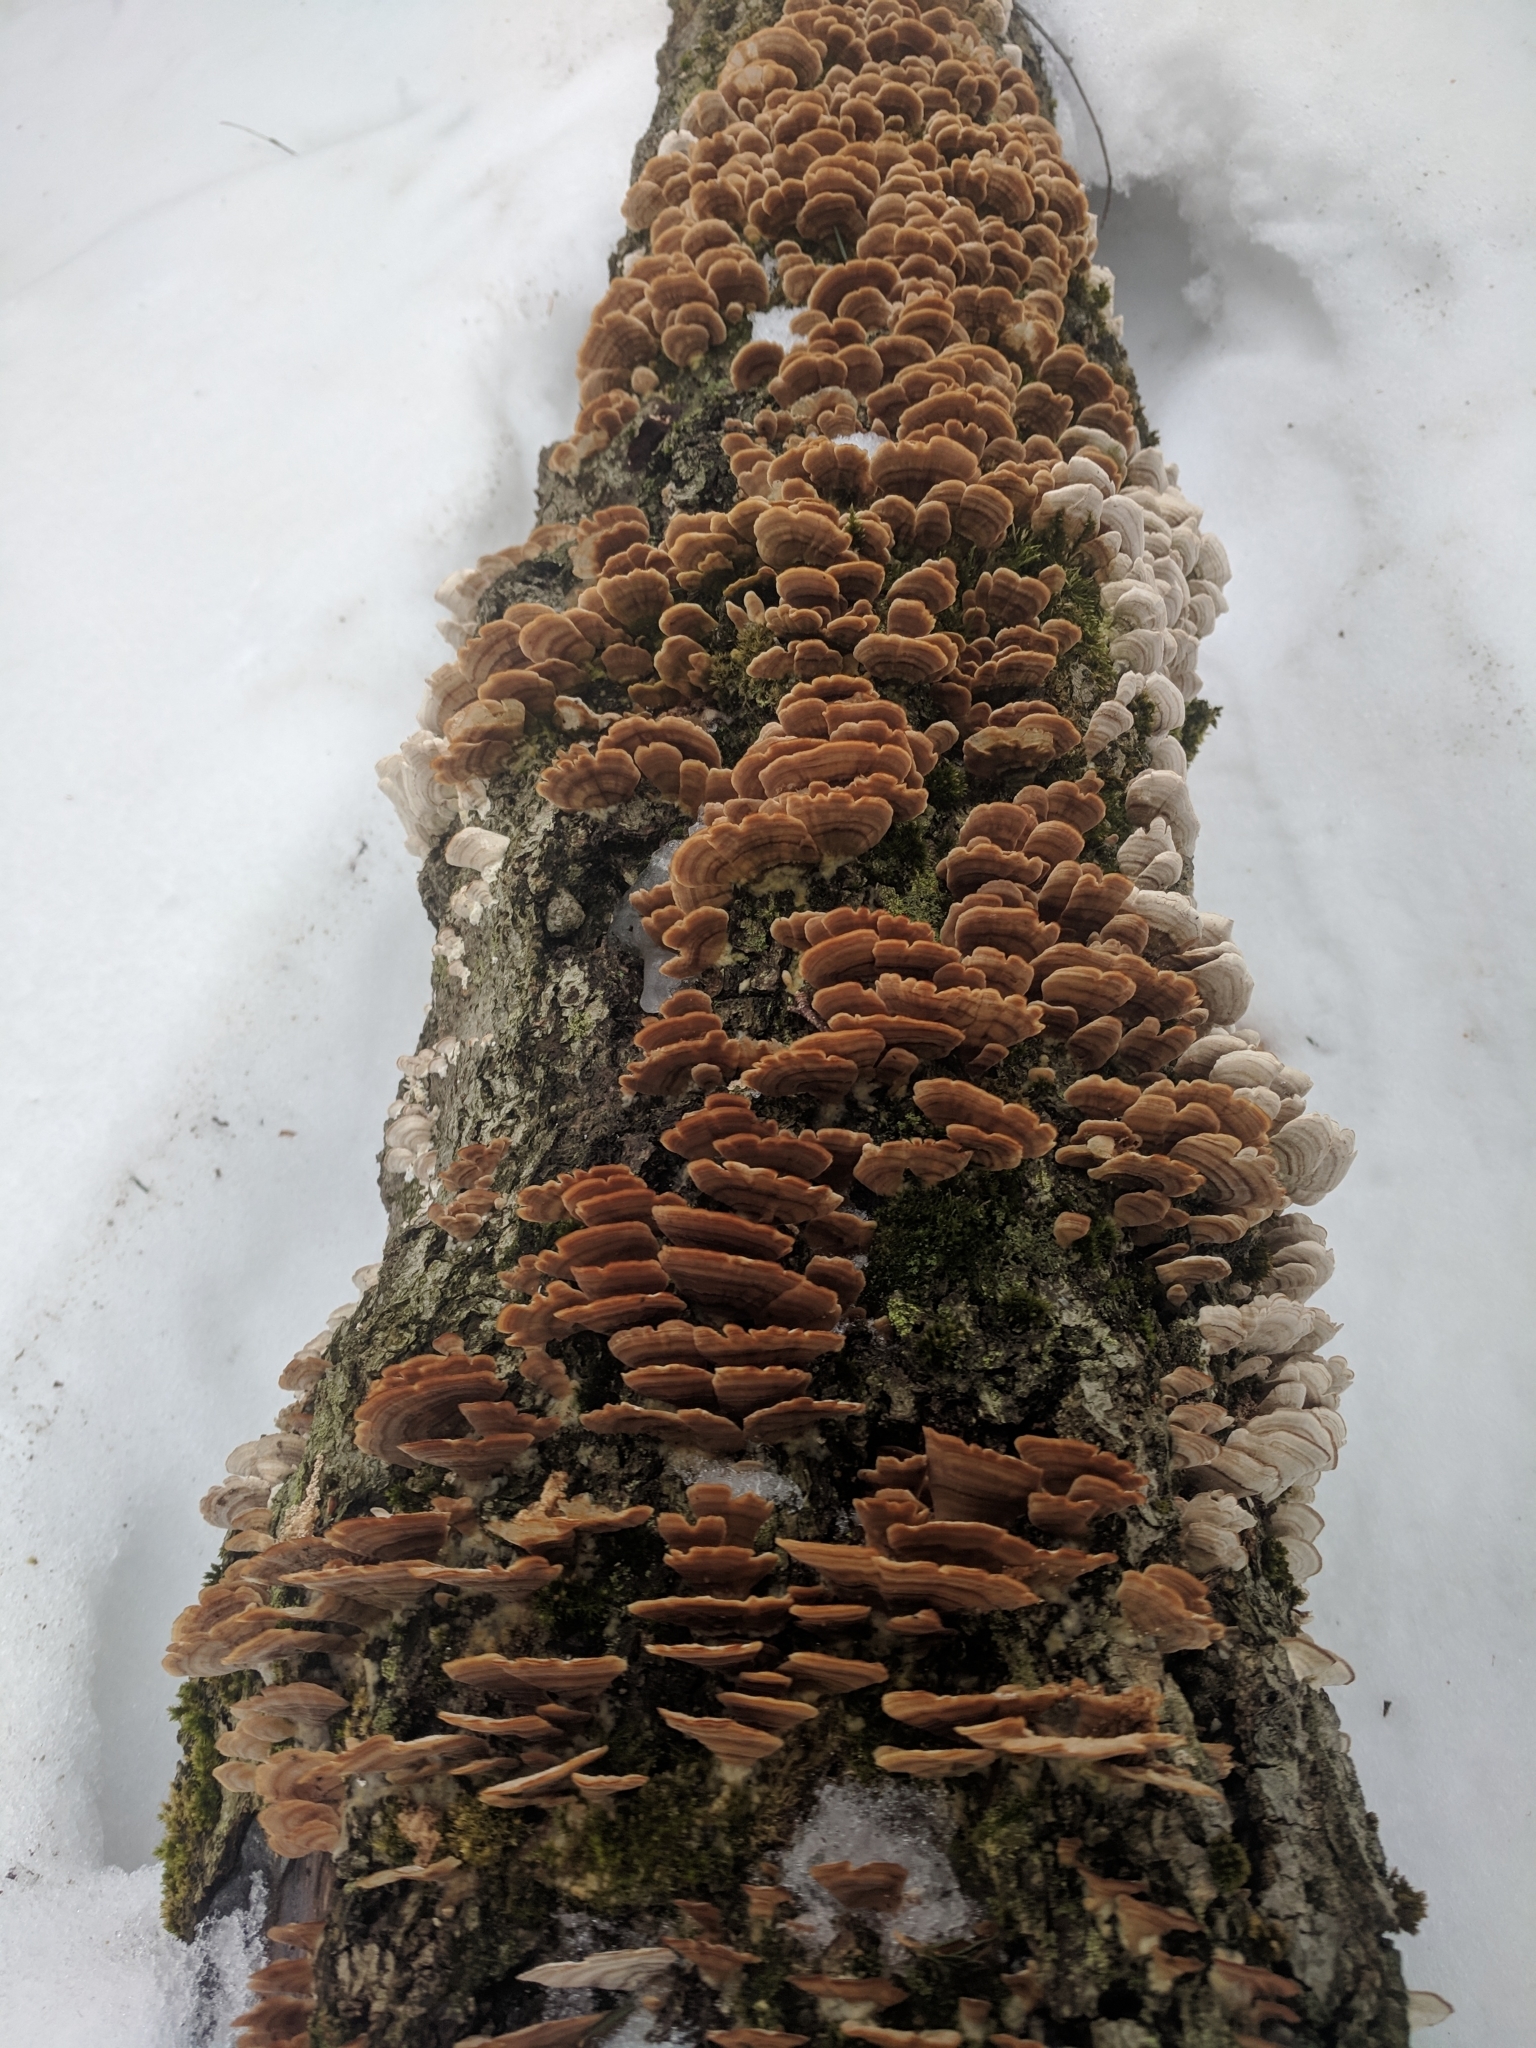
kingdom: Fungi
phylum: Basidiomycota
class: Agaricomycetes
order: Hymenochaetales
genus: Trichaptum
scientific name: Trichaptum biforme
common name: Violet-toothed polypore
